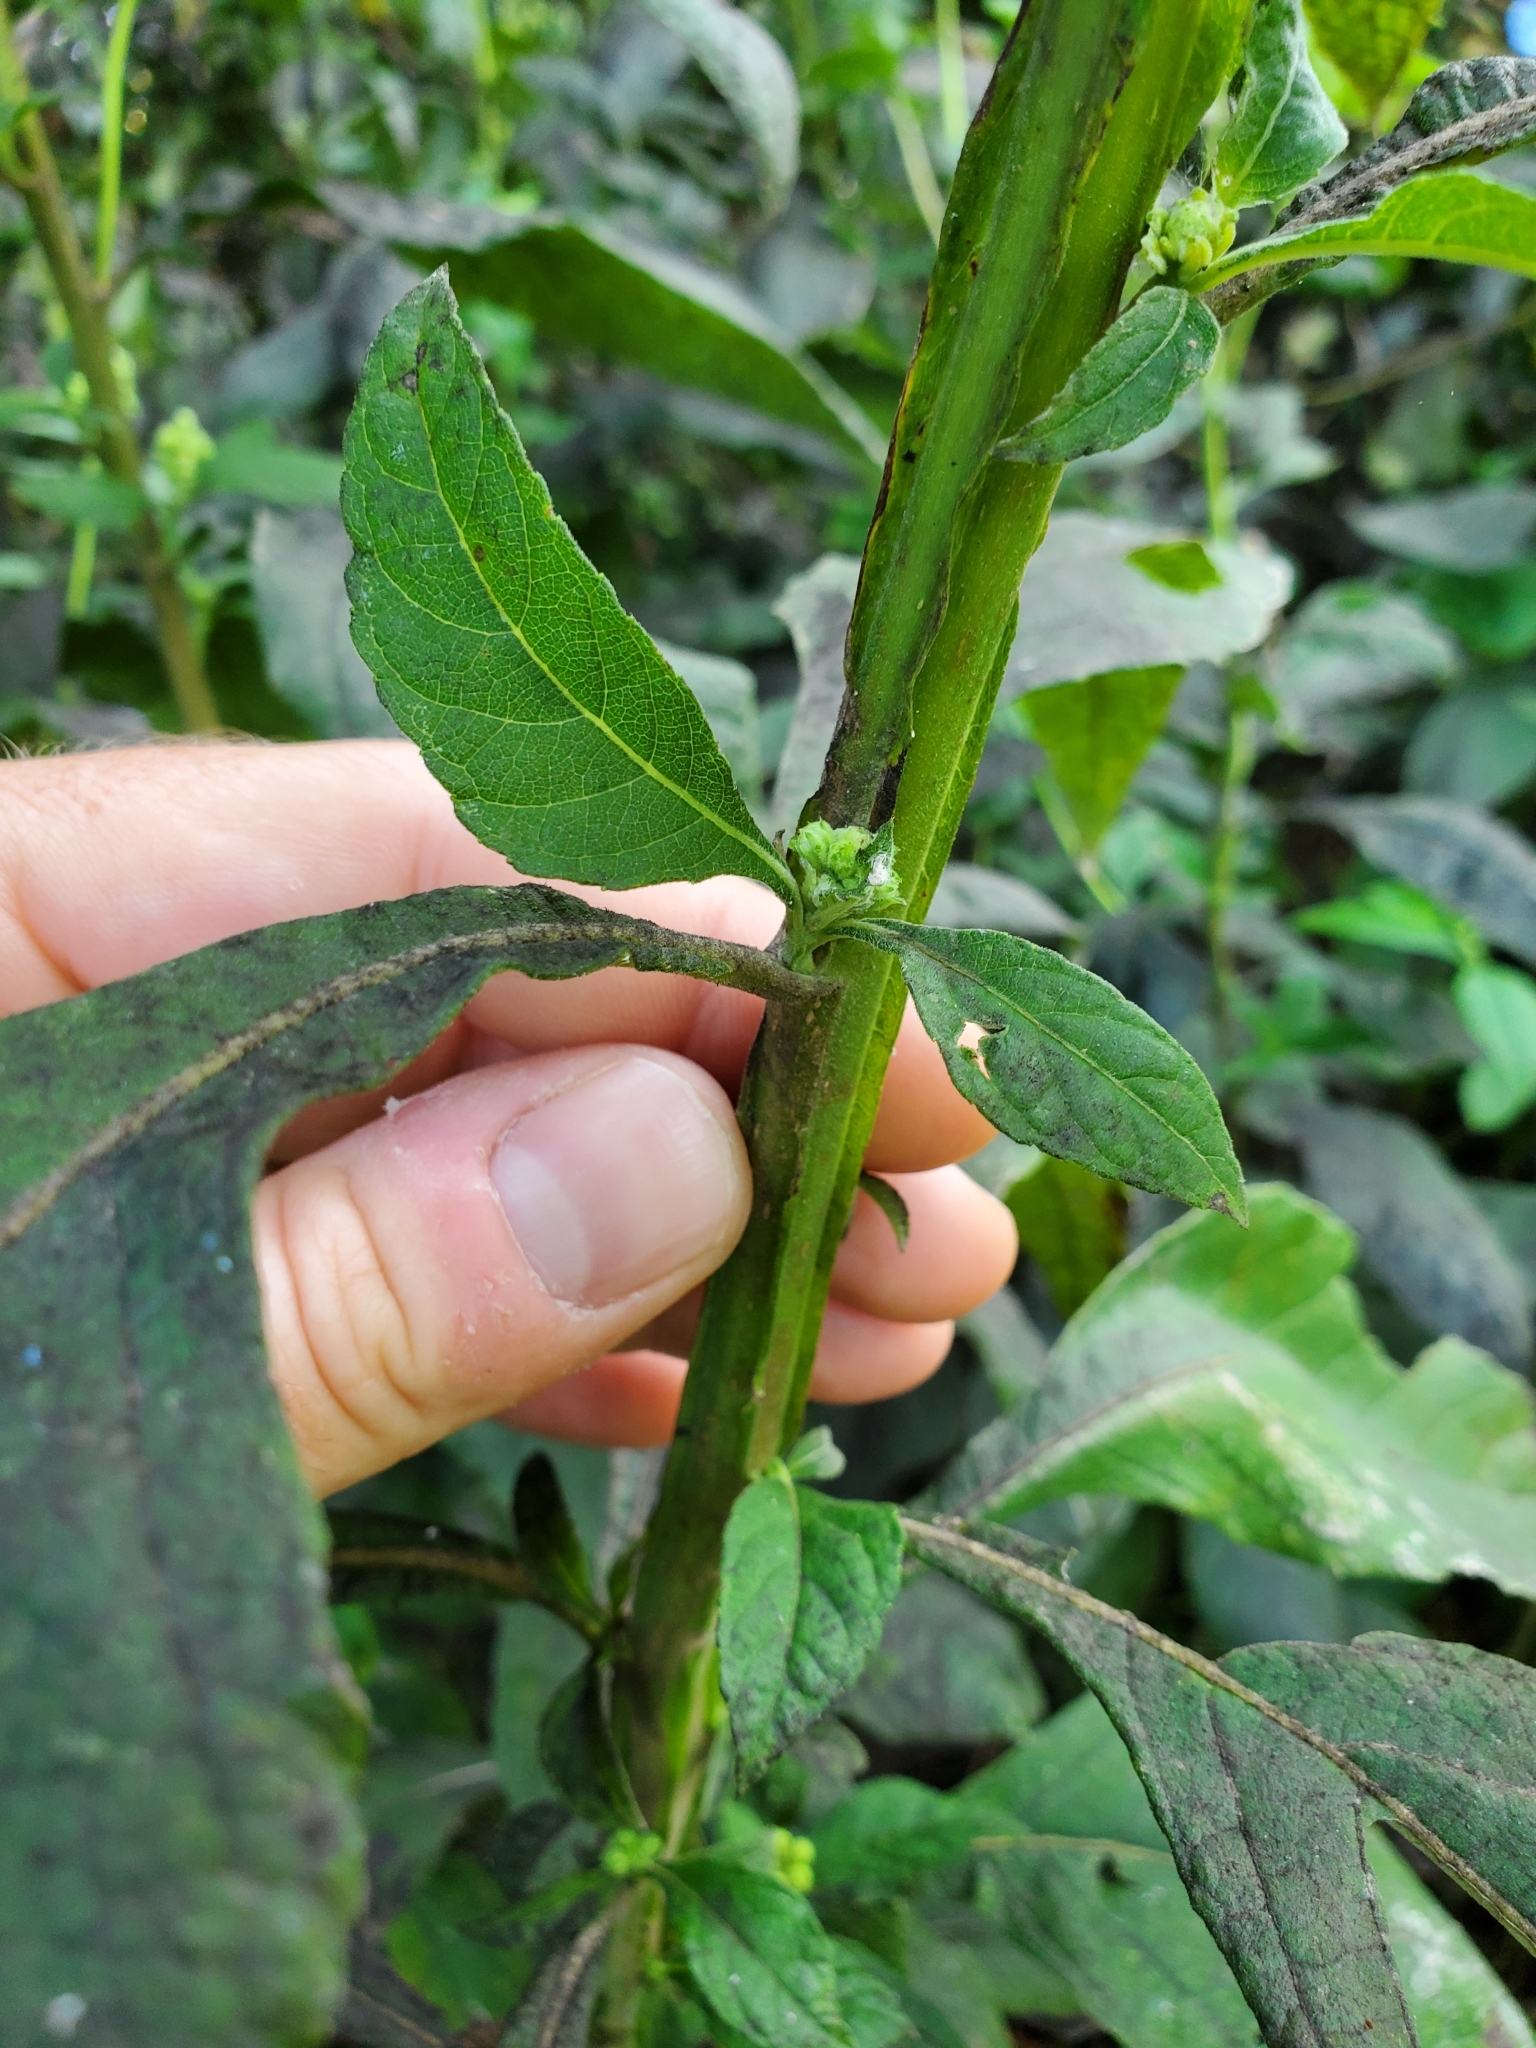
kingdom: Plantae
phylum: Tracheophyta
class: Magnoliopsida
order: Asterales
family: Asteraceae
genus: Verbesina
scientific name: Verbesina virginica
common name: Frostweed
